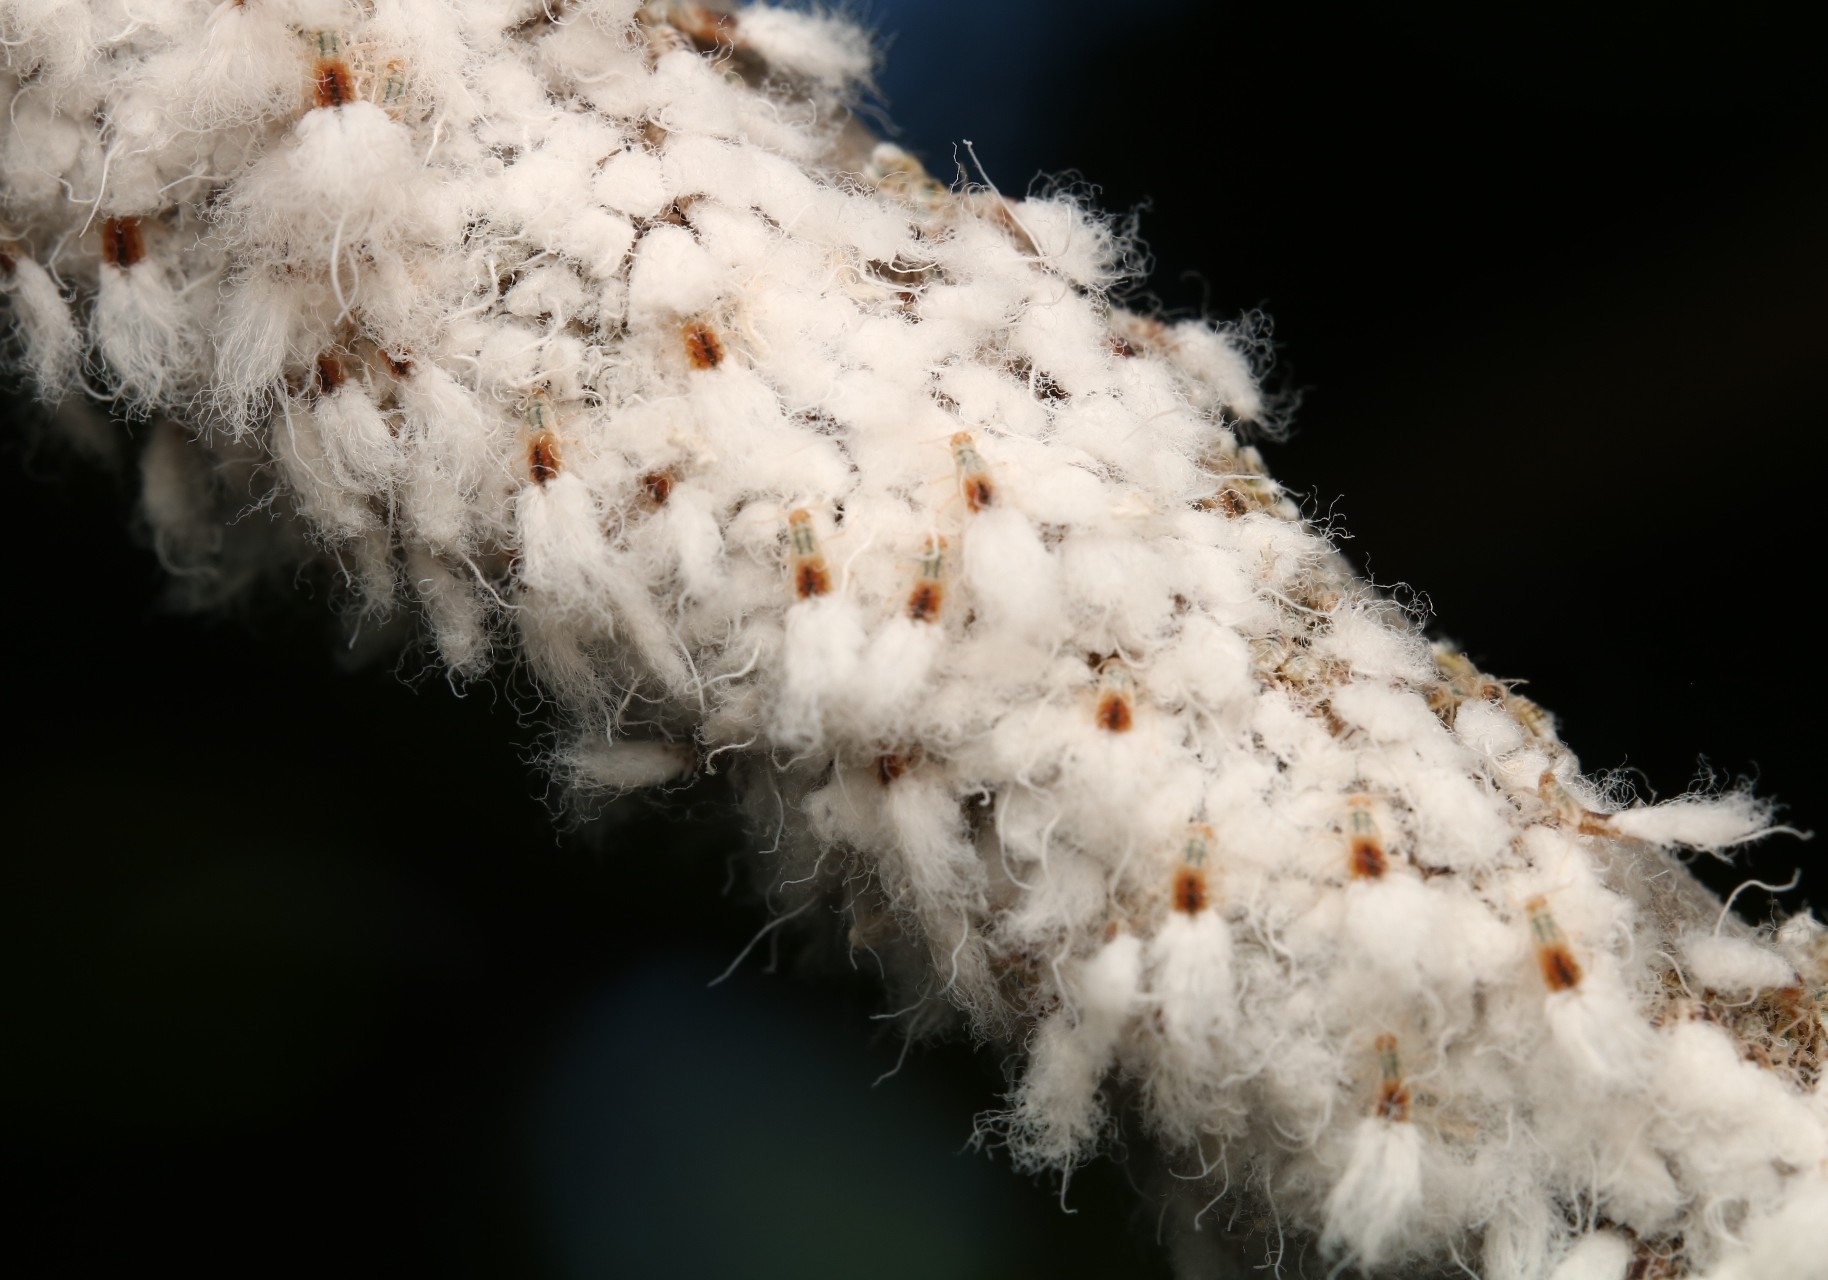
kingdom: Animalia
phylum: Arthropoda
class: Insecta
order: Hemiptera
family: Aphididae
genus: Grylloprociphilus
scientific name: Grylloprociphilus imbricator
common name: Beech blight aphid
